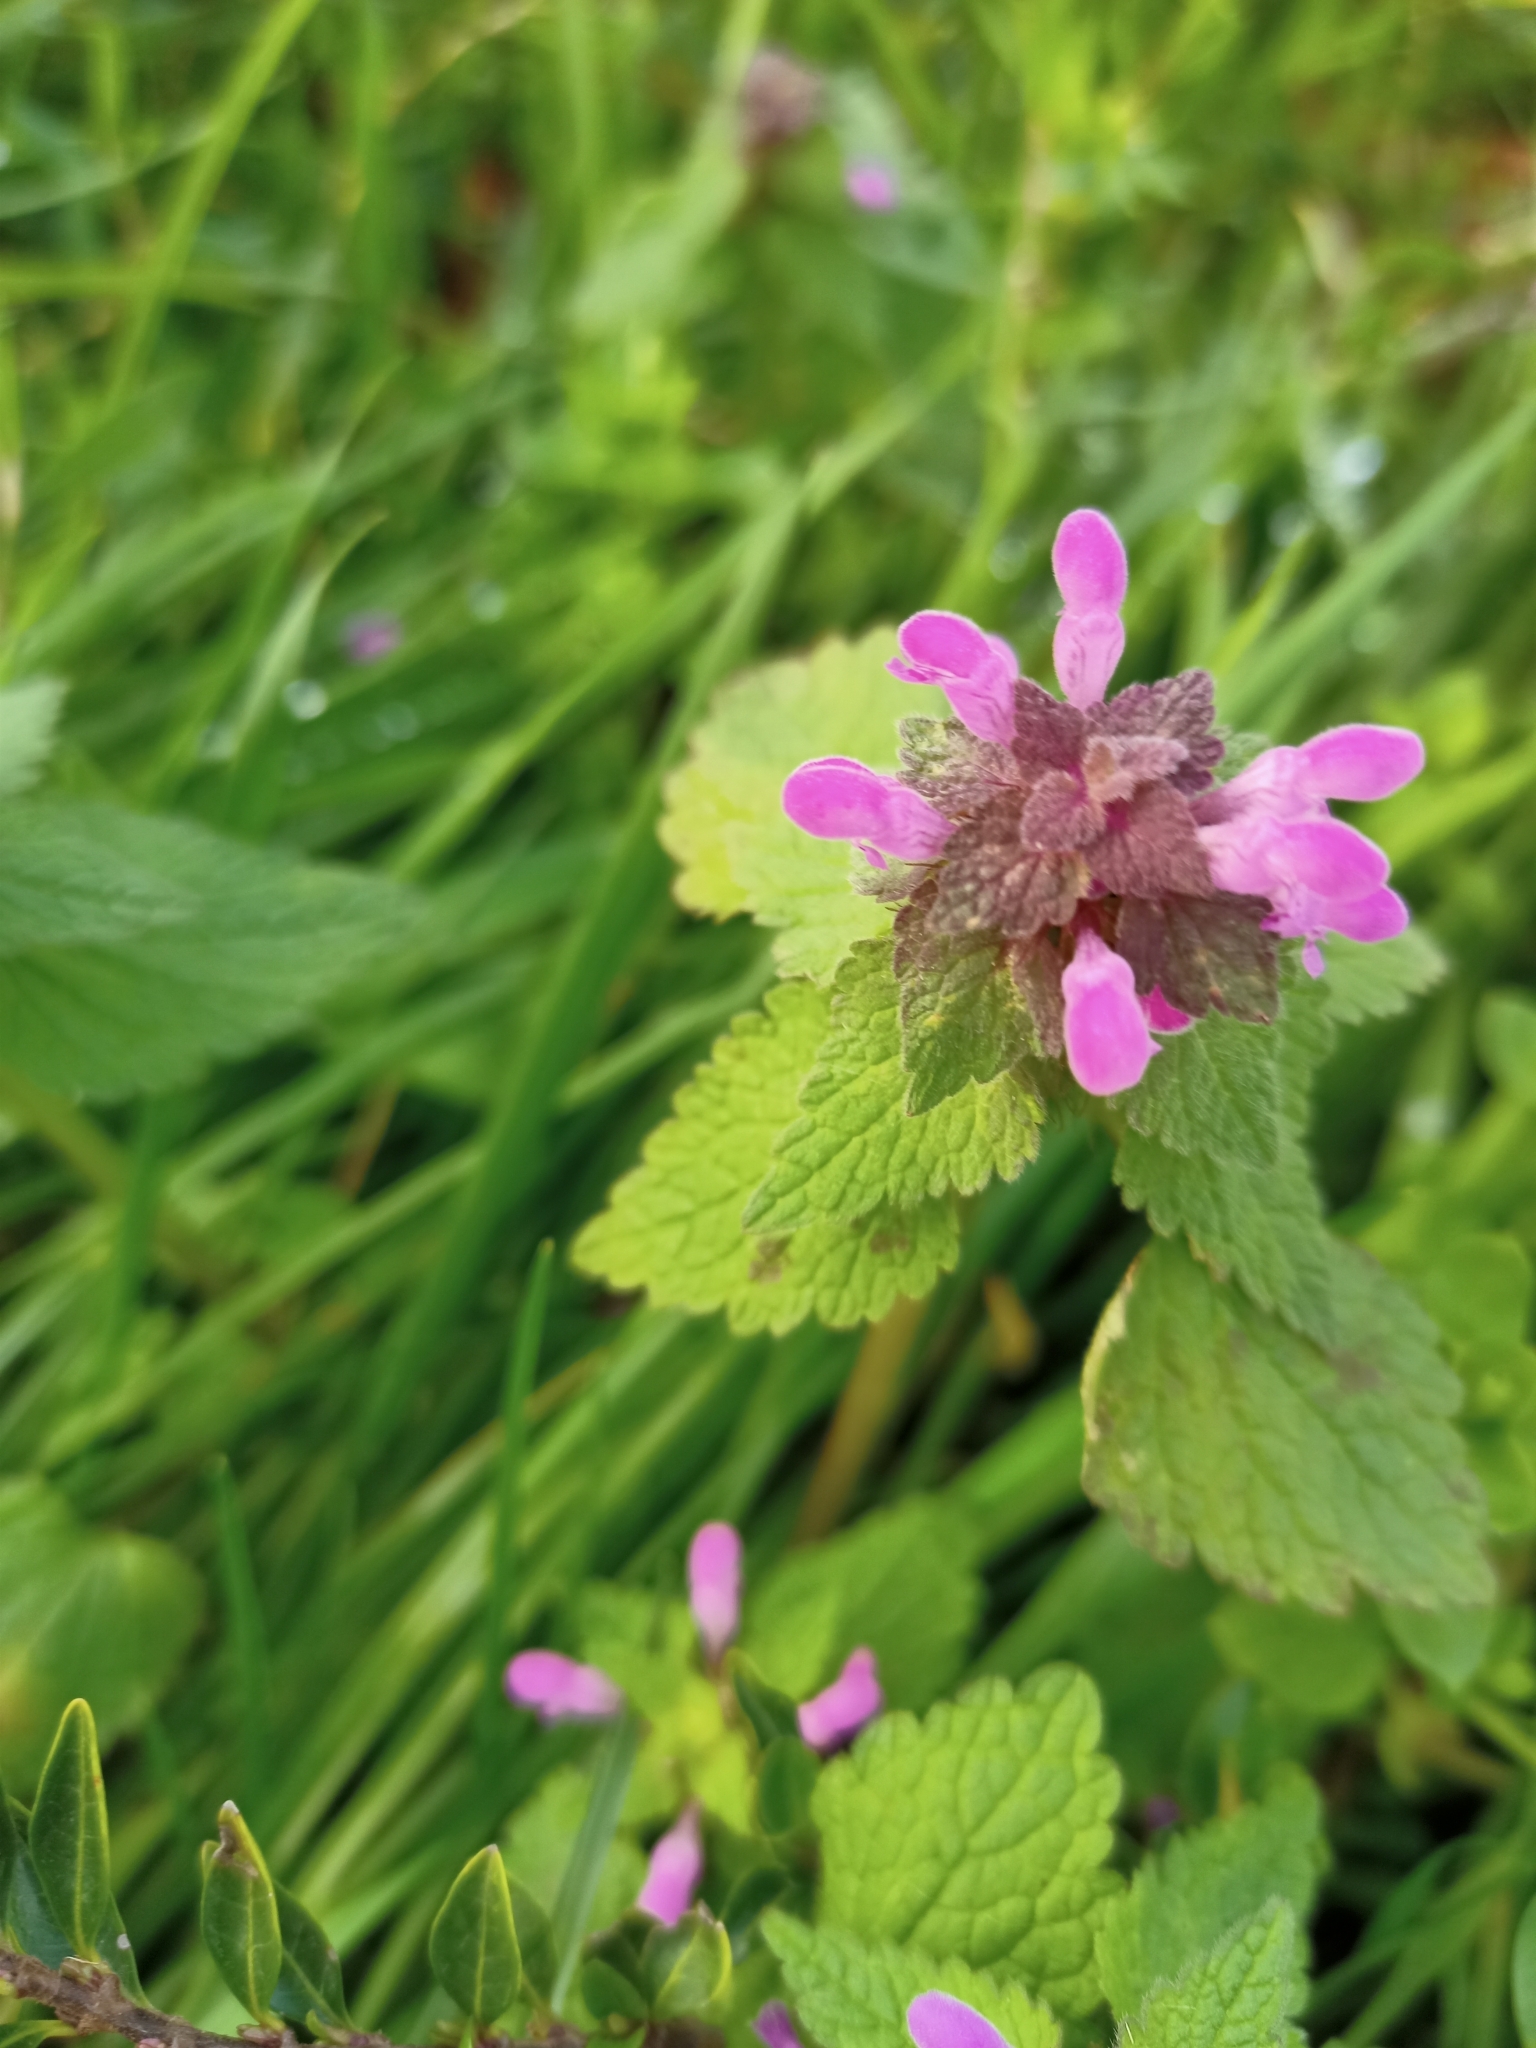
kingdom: Plantae
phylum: Tracheophyta
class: Magnoliopsida
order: Lamiales
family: Lamiaceae
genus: Lamium
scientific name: Lamium purpureum
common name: Red dead-nettle
